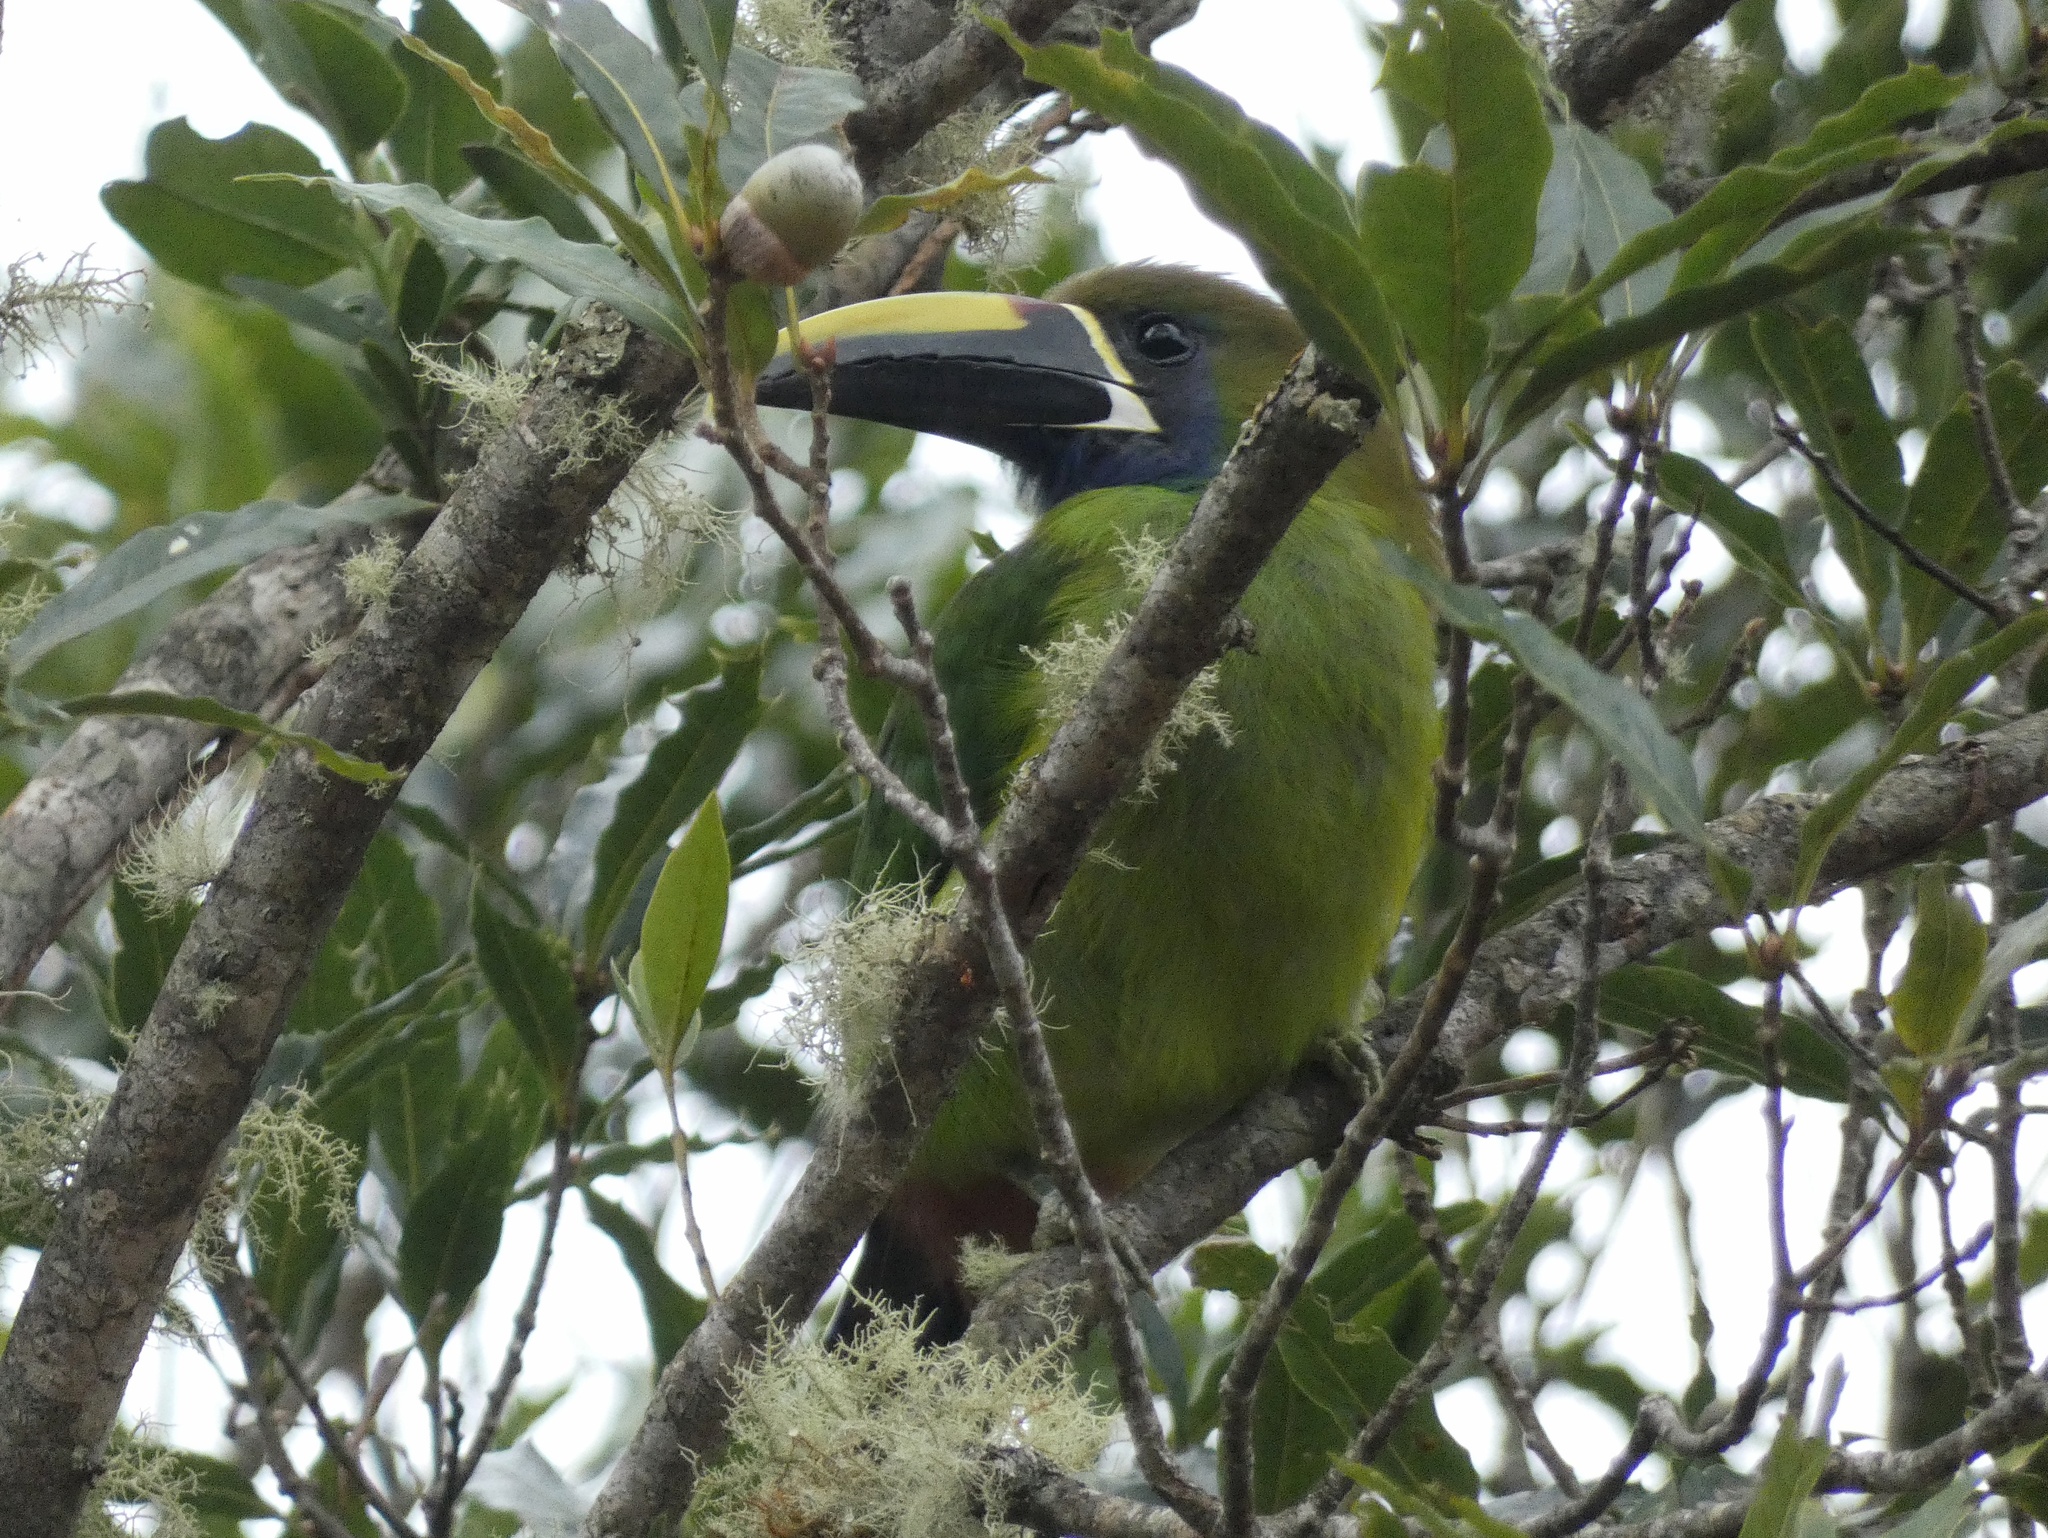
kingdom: Animalia
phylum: Chordata
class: Aves
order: Piciformes
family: Ramphastidae
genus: Aulacorhynchus
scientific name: Aulacorhynchus prasinus
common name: Emerald toucanet
